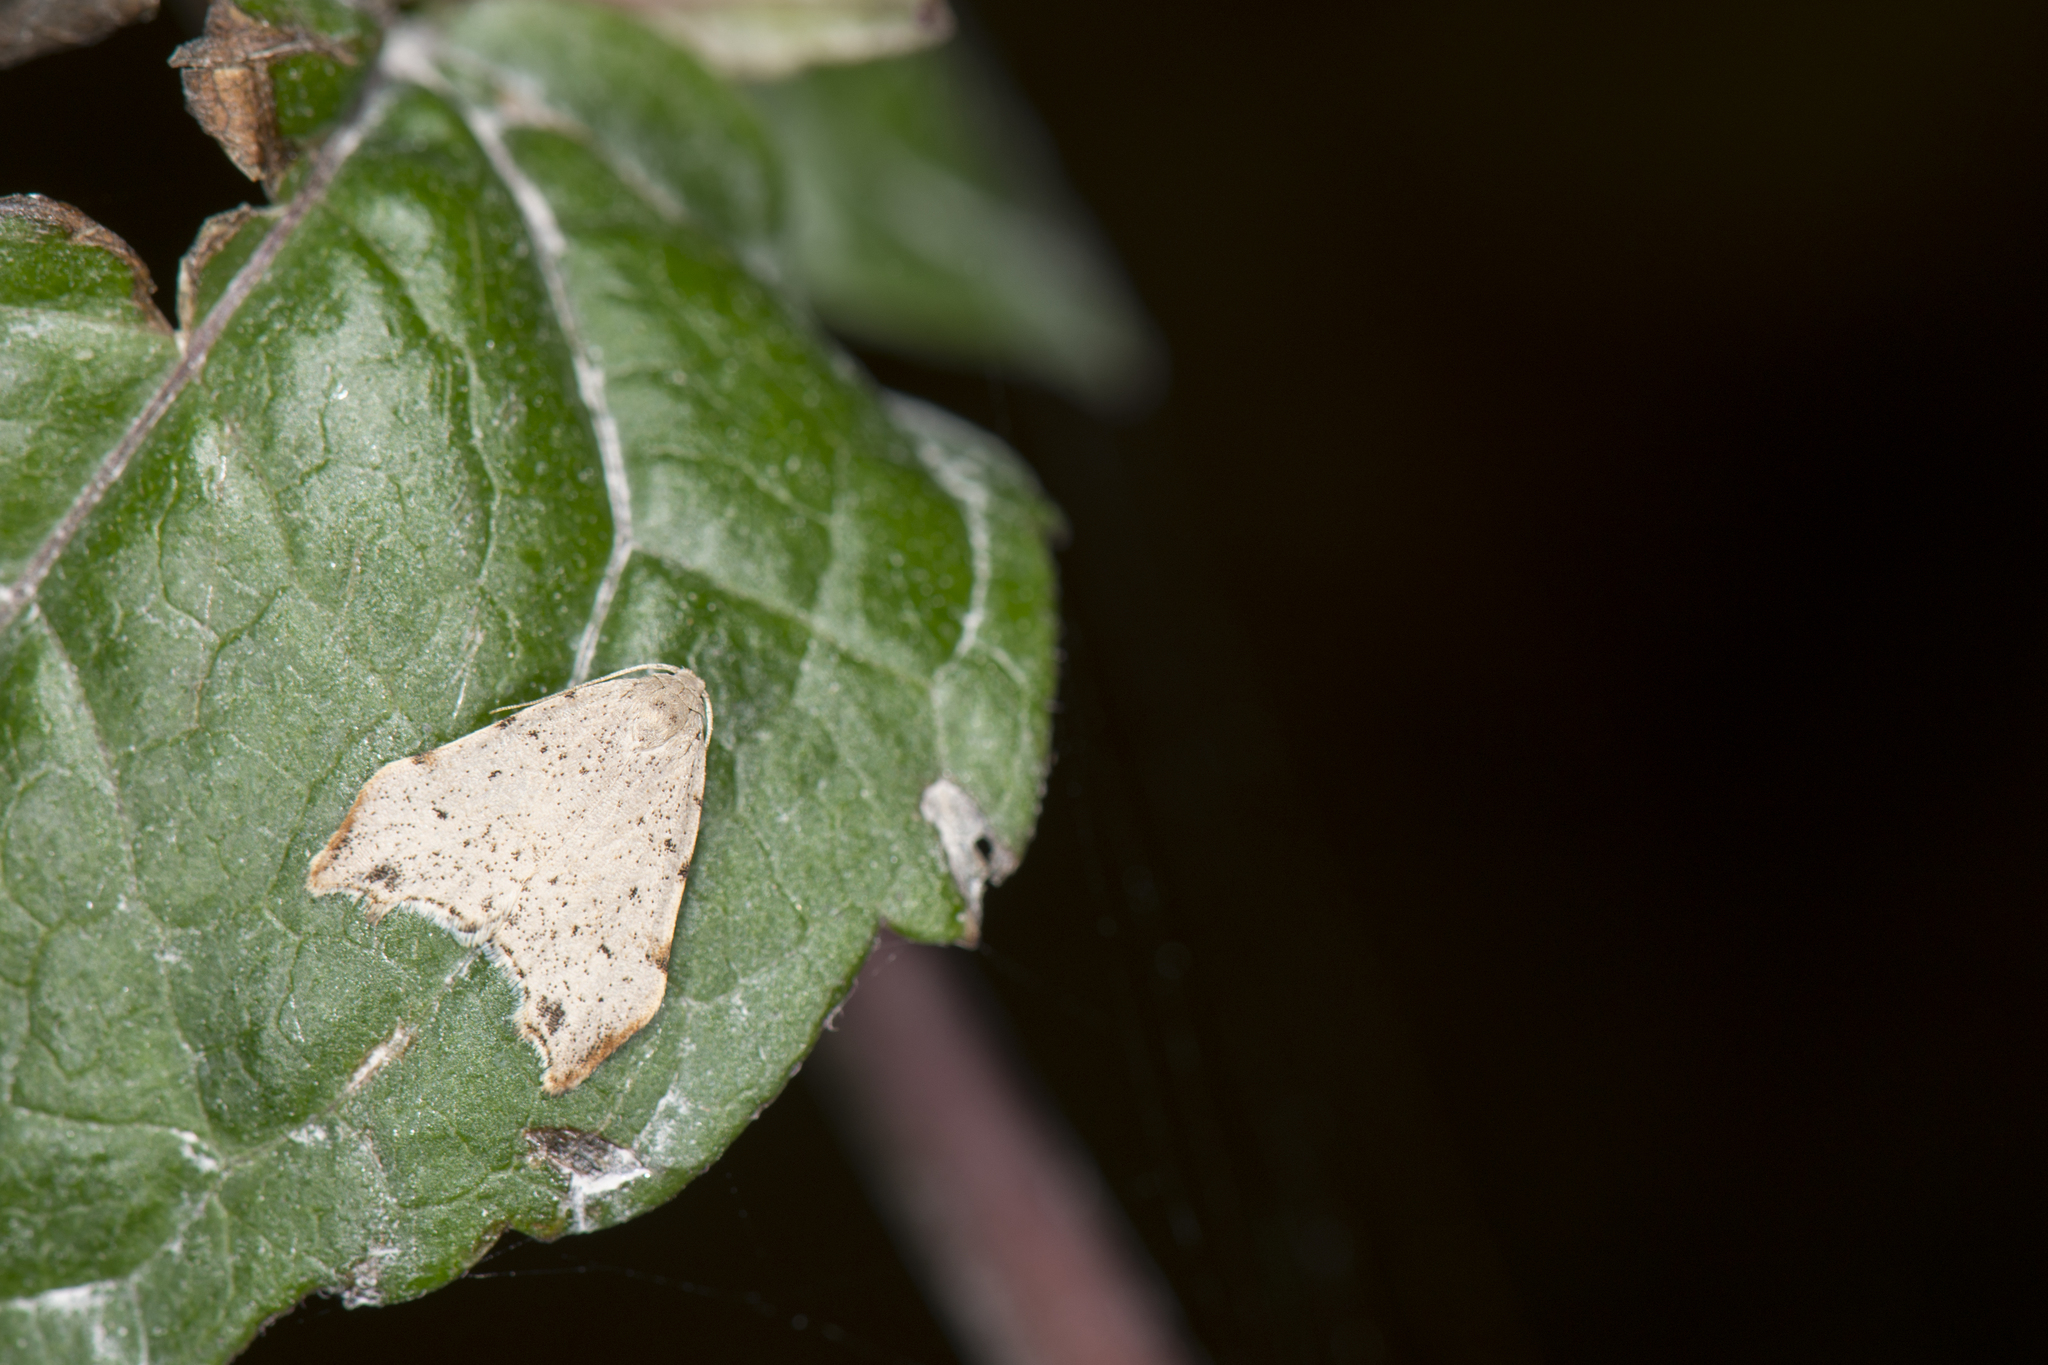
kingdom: Animalia
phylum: Arthropoda
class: Insecta
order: Lepidoptera
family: Erebidae
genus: Oxacme
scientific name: Oxacme cretacea
